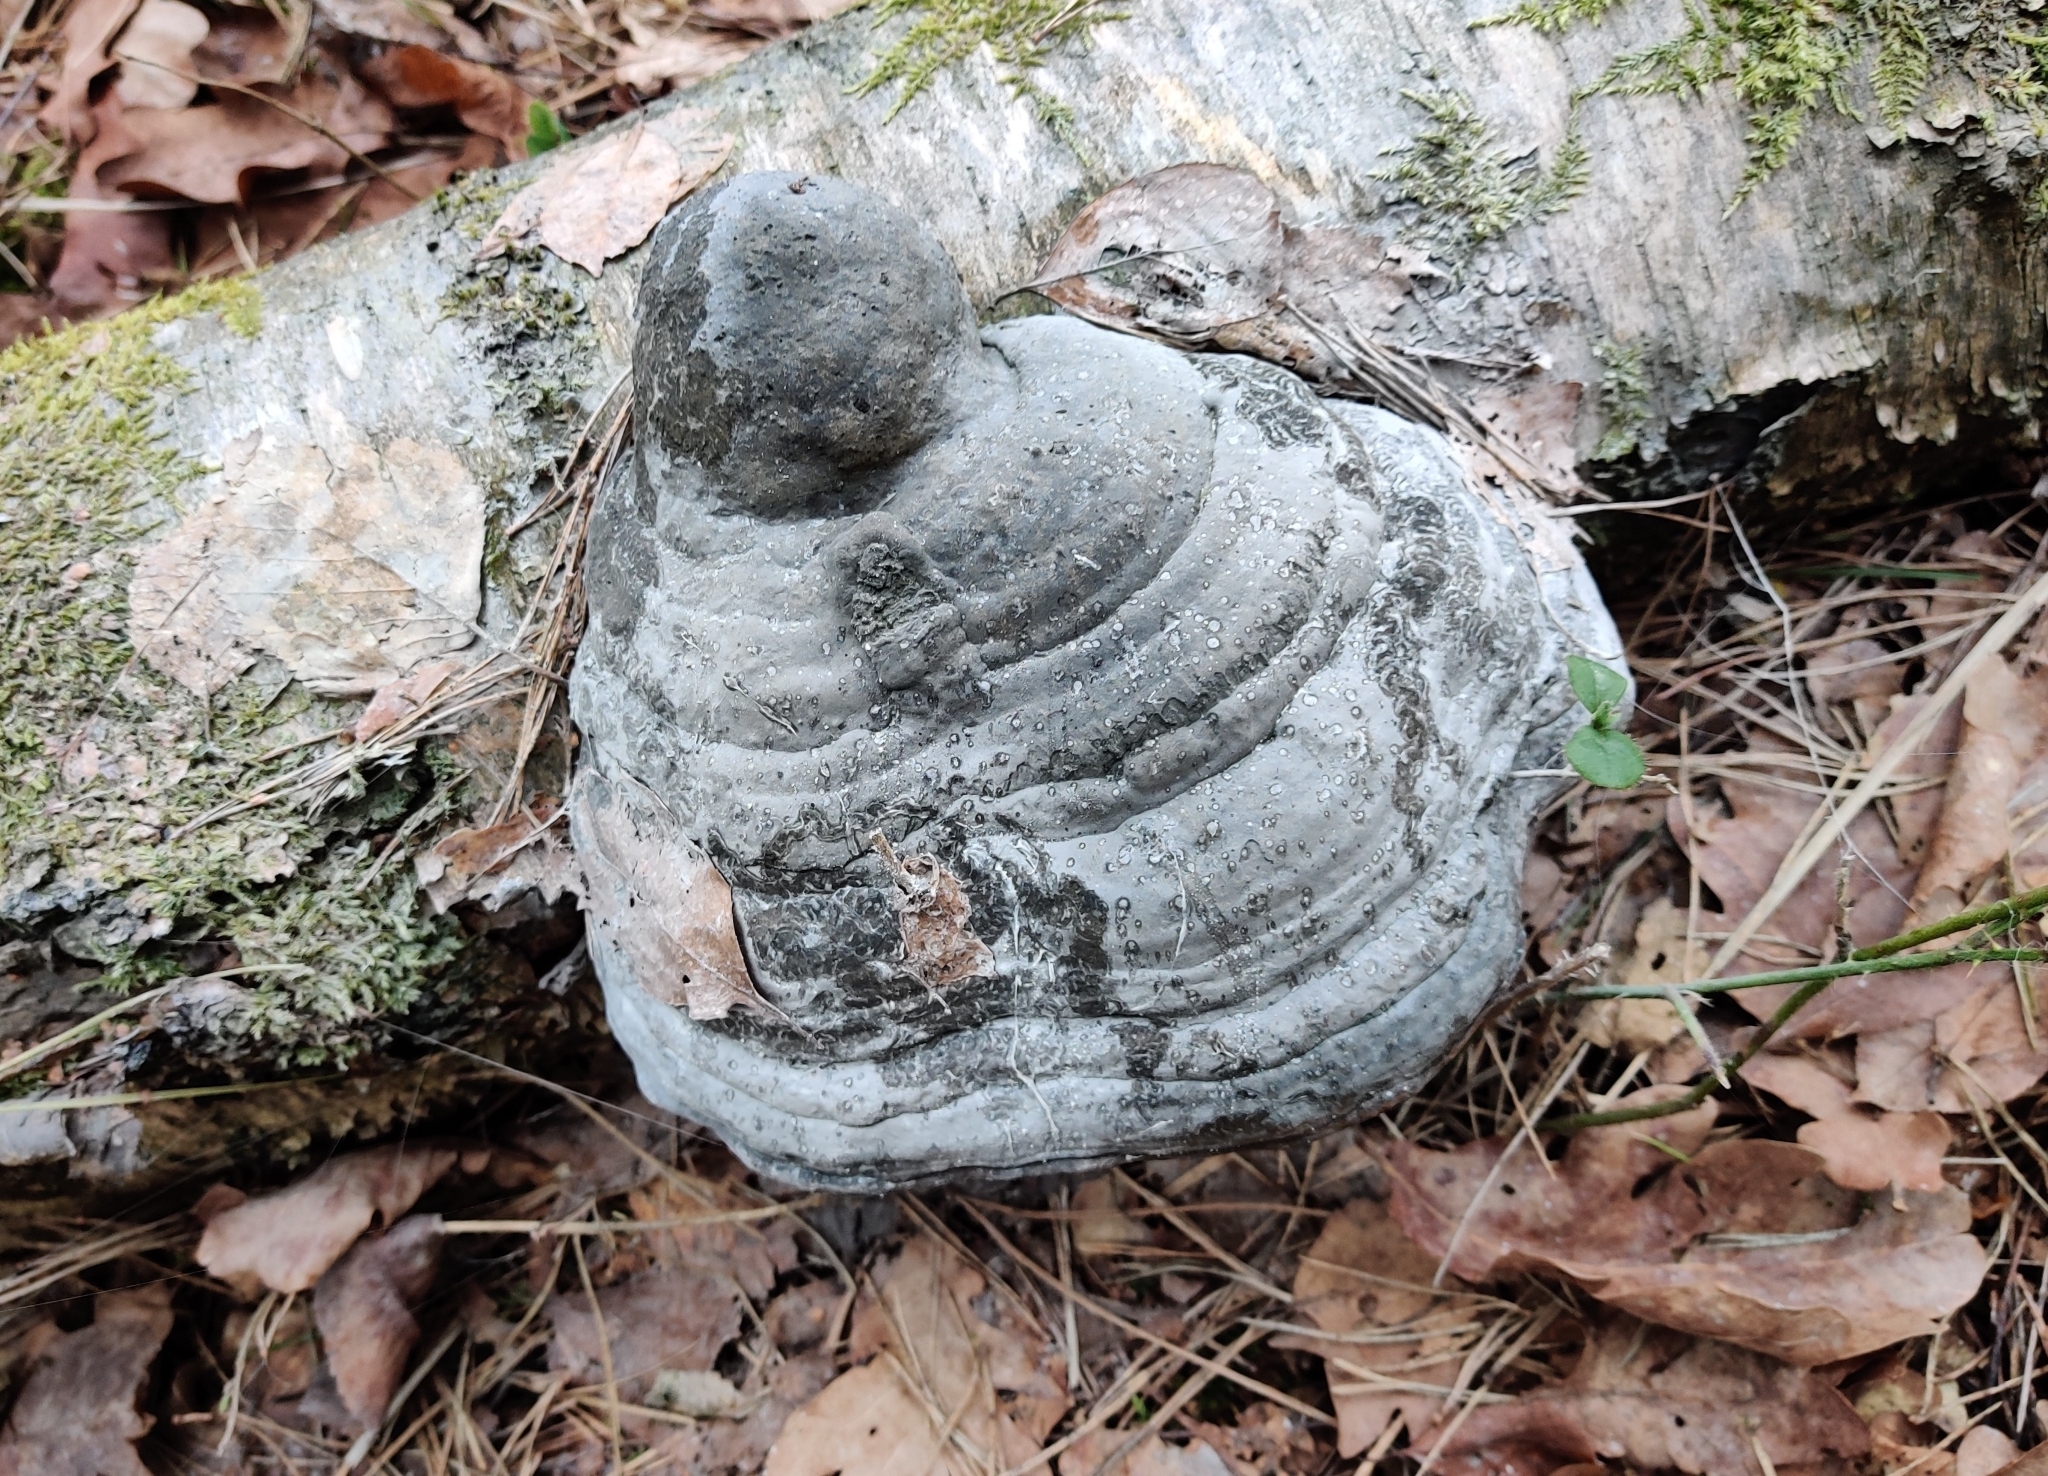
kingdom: Fungi
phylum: Basidiomycota
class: Agaricomycetes
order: Polyporales
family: Polyporaceae
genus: Fomes
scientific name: Fomes fomentarius
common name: Hoof fungus
